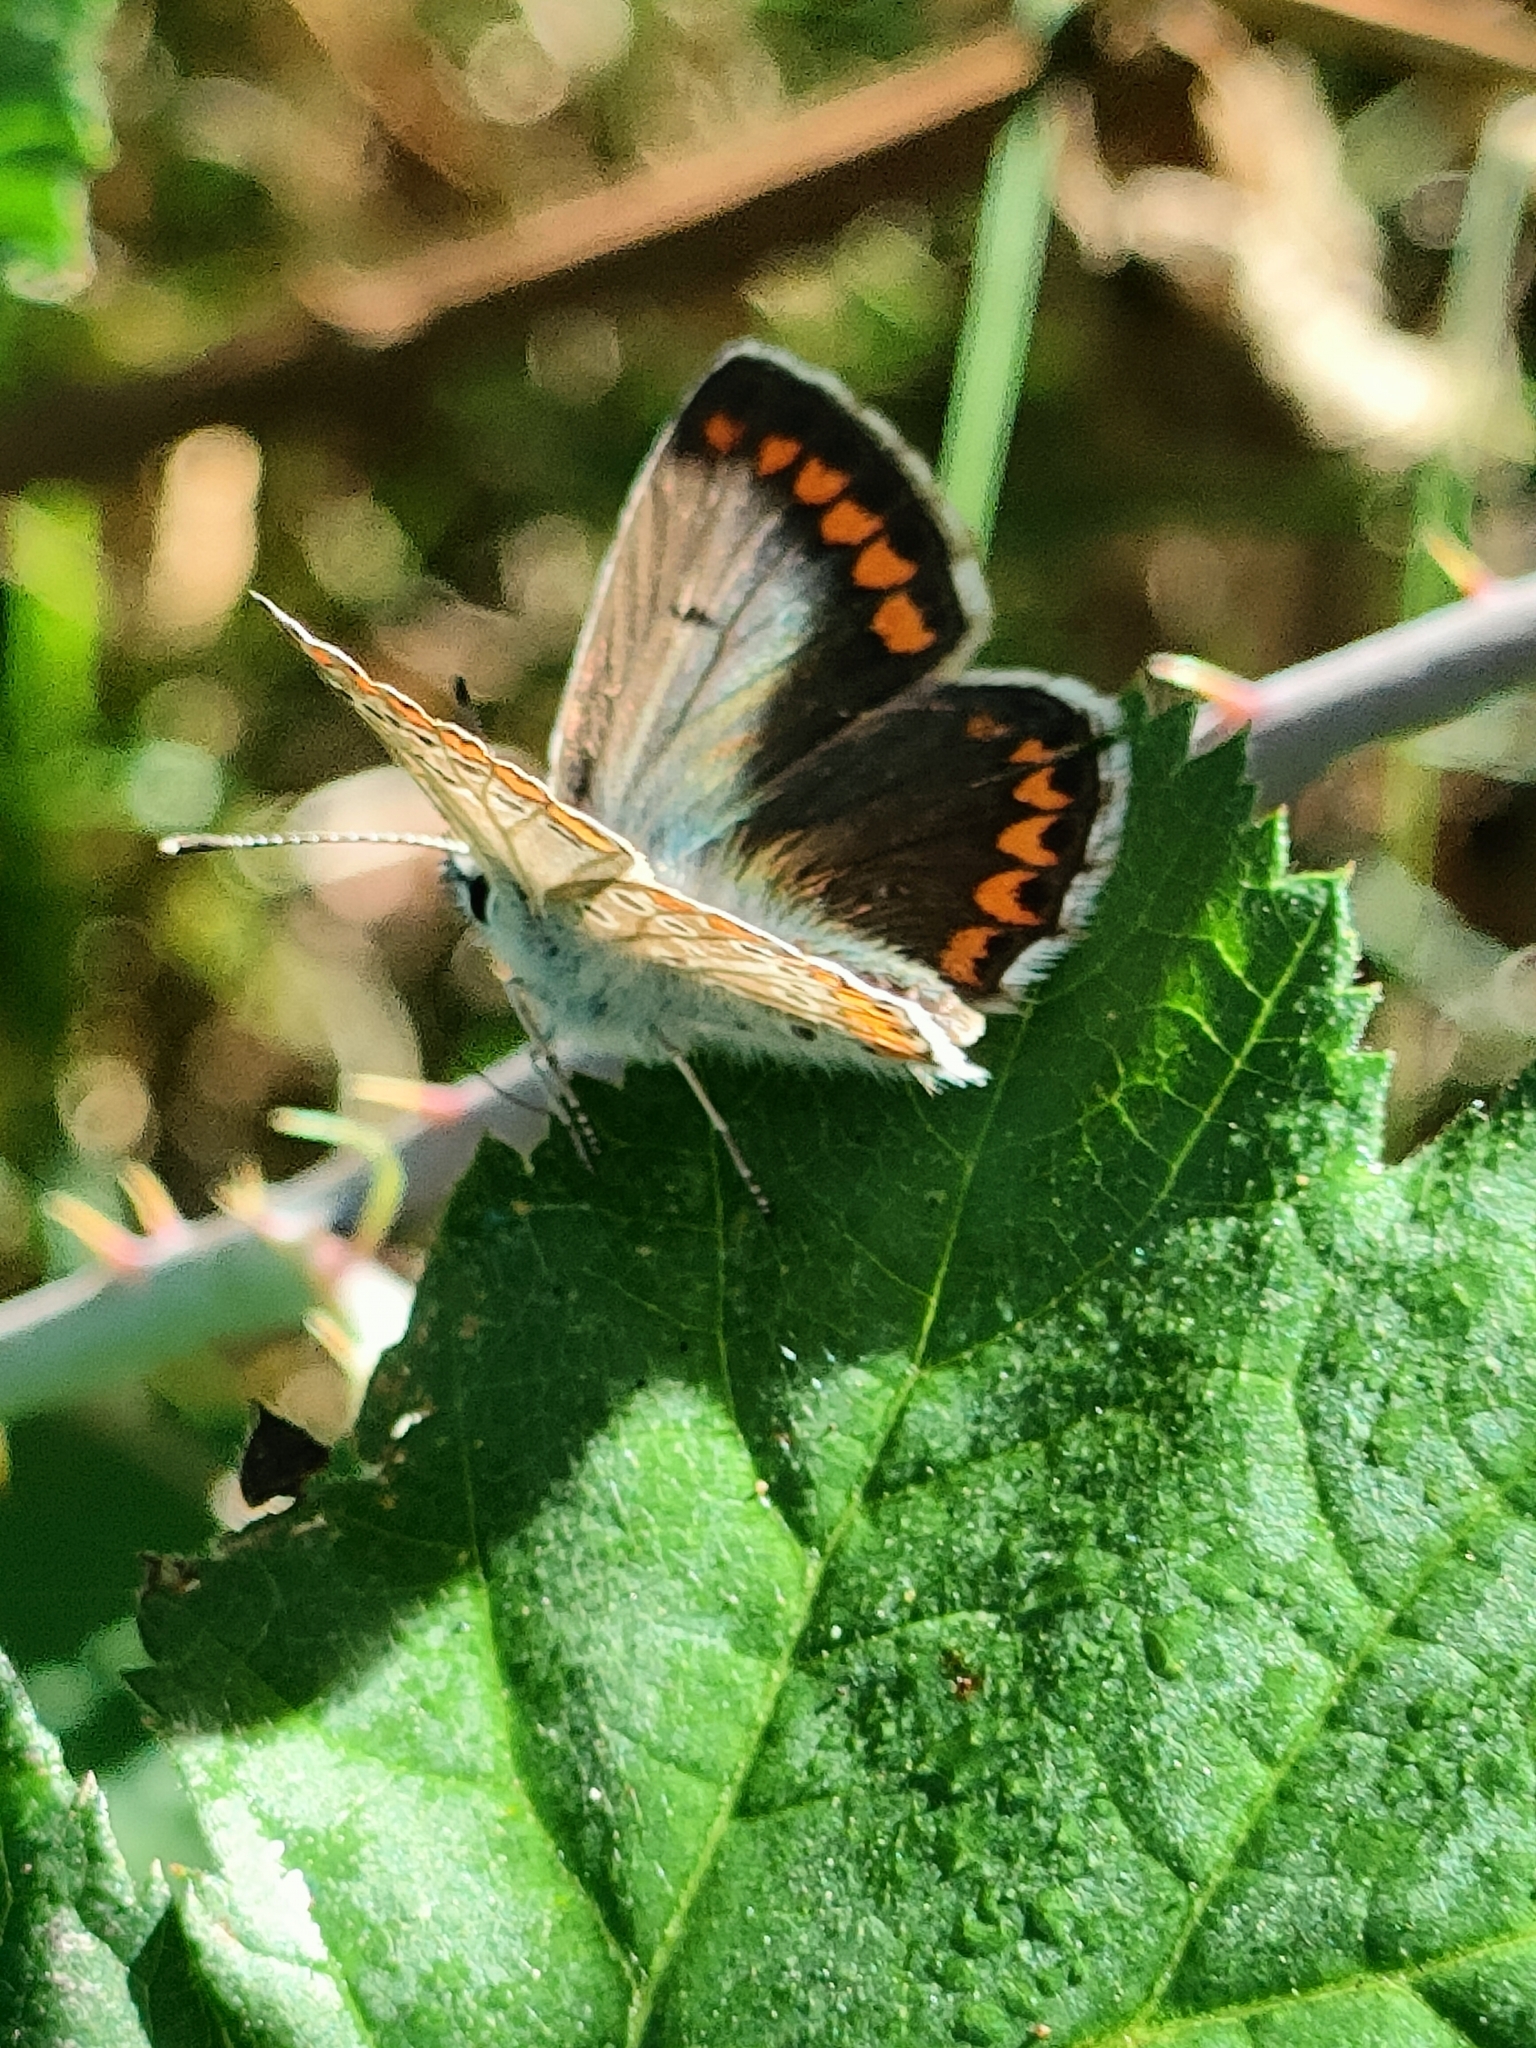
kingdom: Animalia
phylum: Arthropoda
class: Insecta
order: Lepidoptera
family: Lycaenidae
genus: Aricia
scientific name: Aricia agestis
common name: Brown argus
